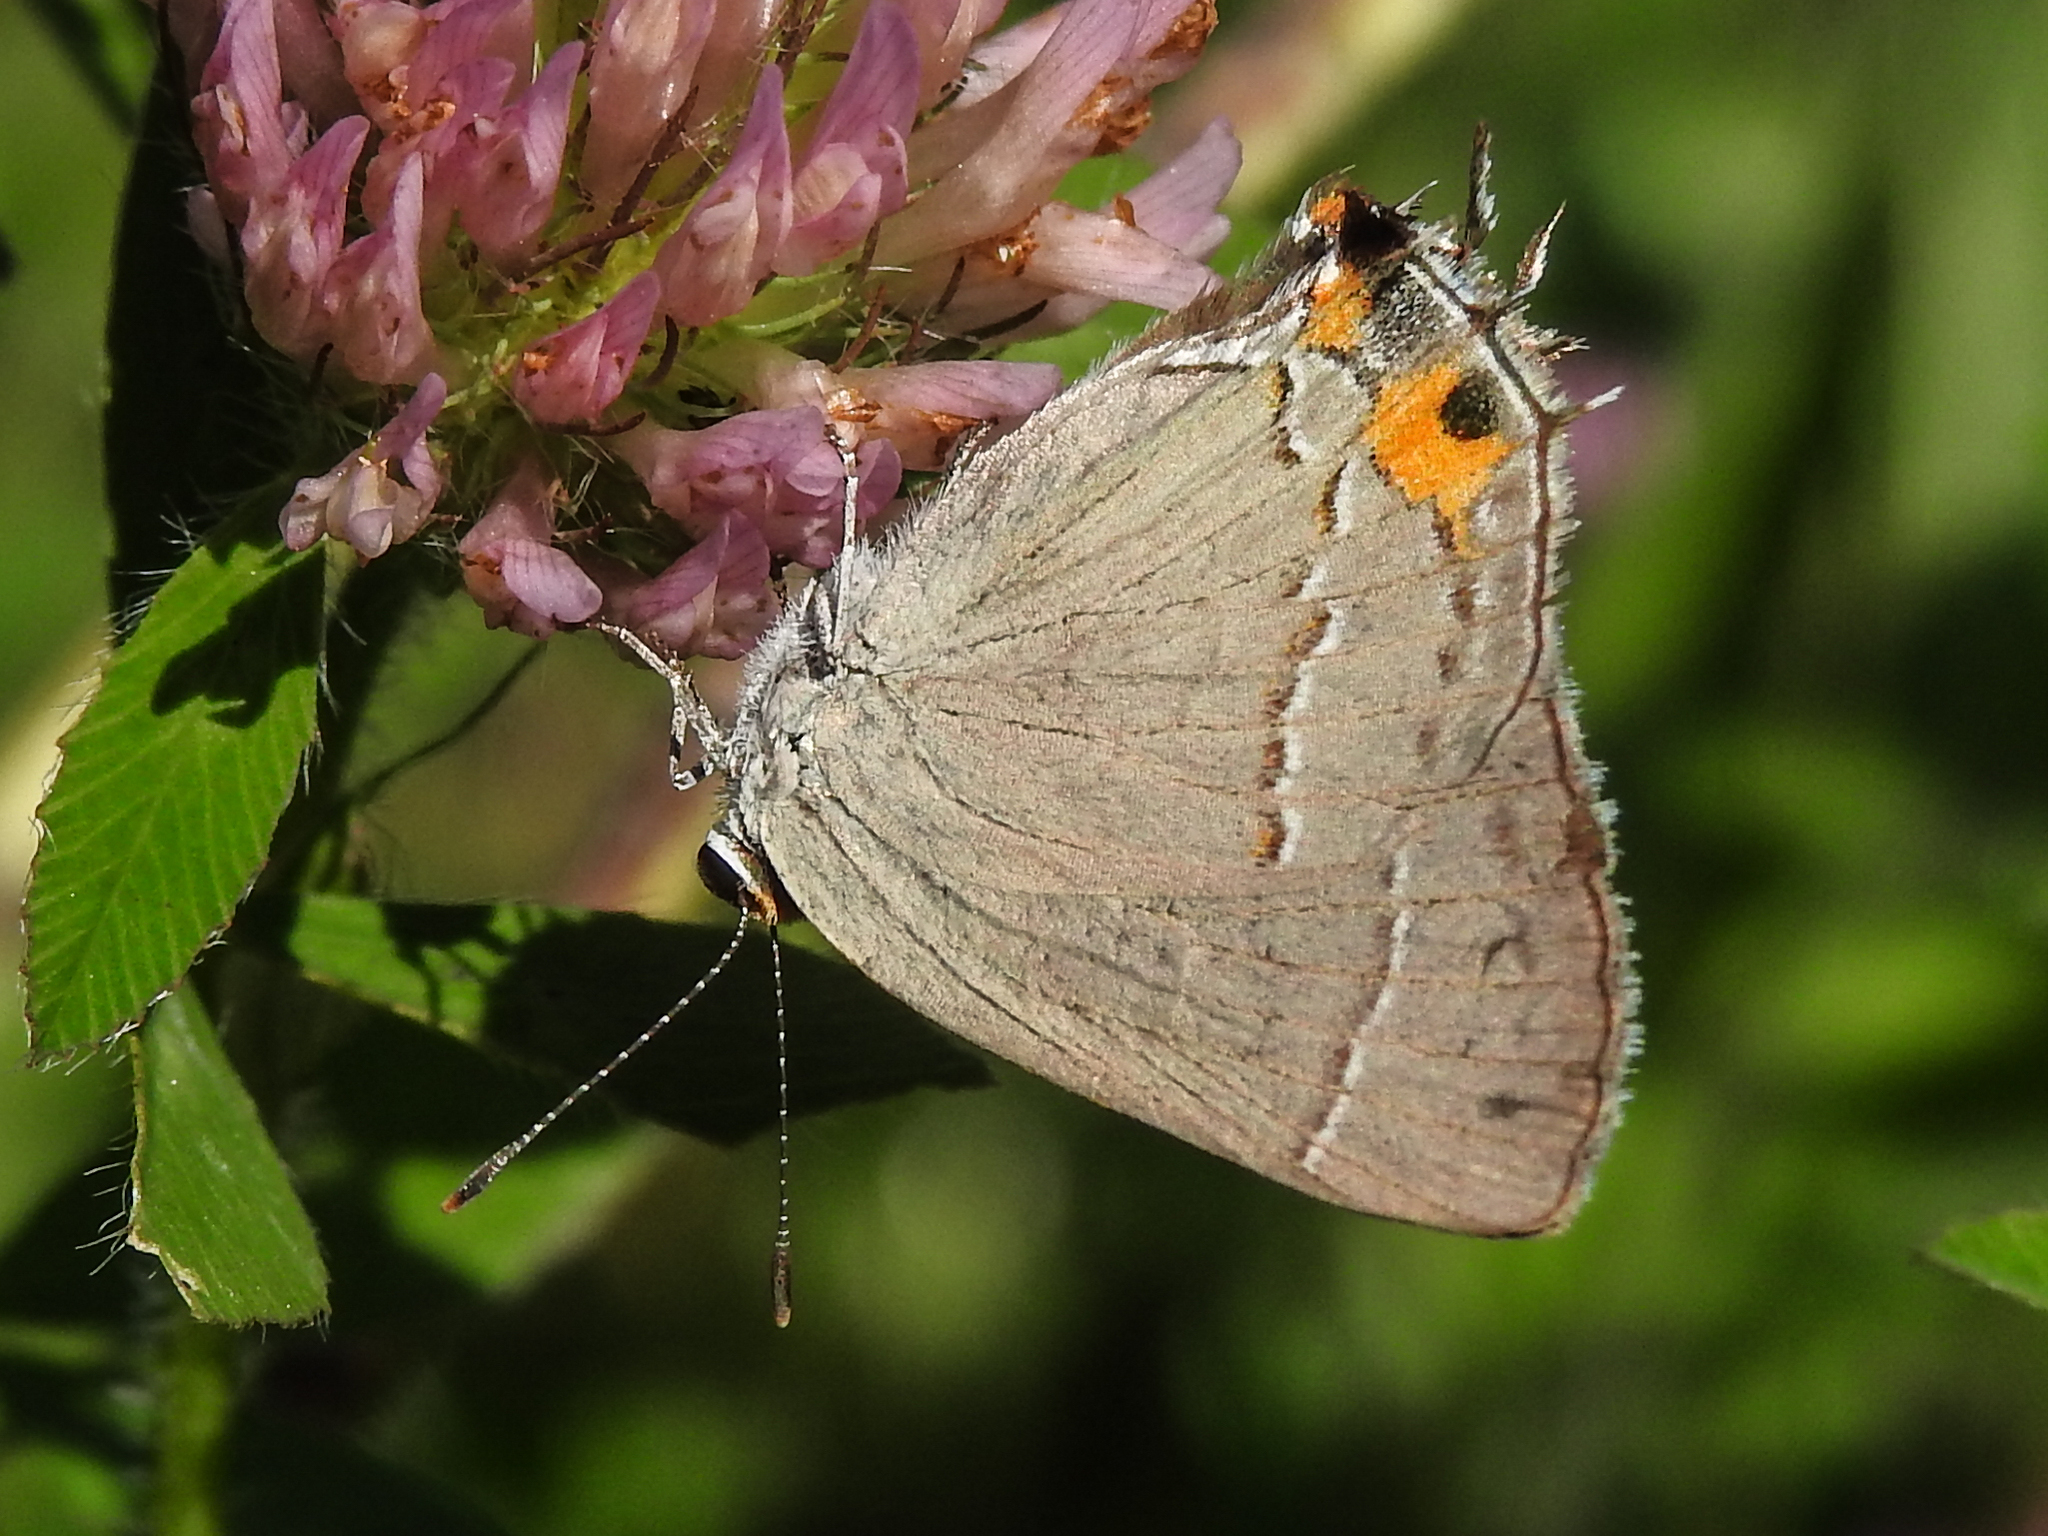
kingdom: Animalia
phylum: Arthropoda
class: Insecta
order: Lepidoptera
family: Lycaenidae
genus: Strymon
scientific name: Strymon melinus
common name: Gray hairstreak
